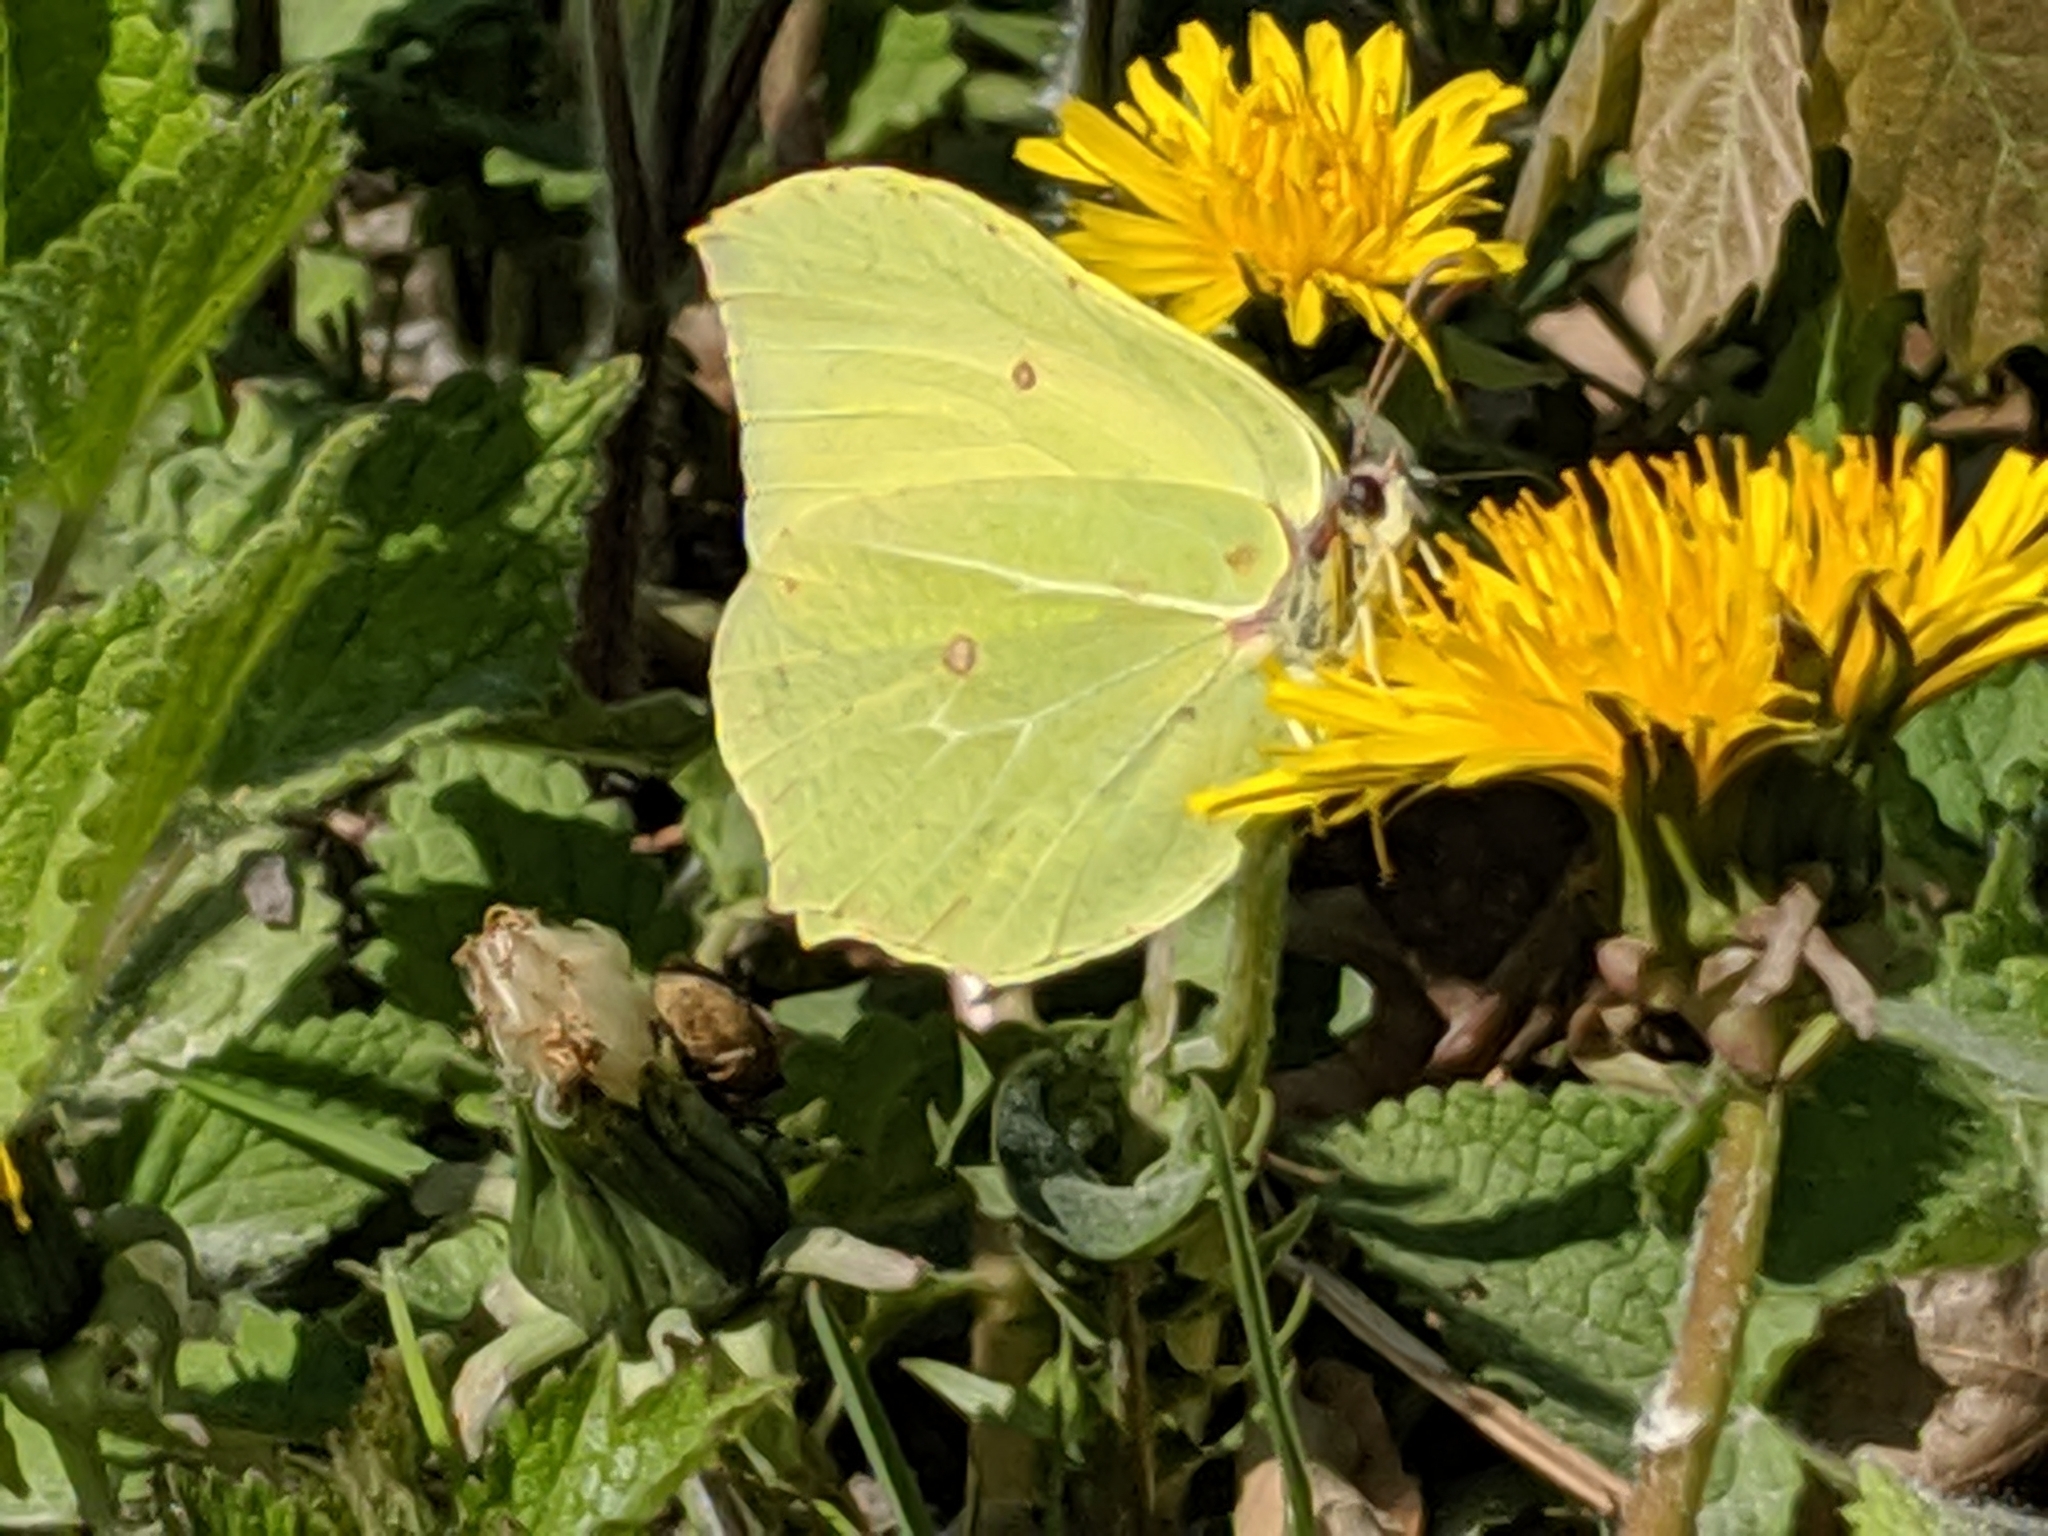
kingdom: Animalia
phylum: Arthropoda
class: Insecta
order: Lepidoptera
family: Pieridae
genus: Gonepteryx
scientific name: Gonepteryx rhamni
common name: Brimstone
